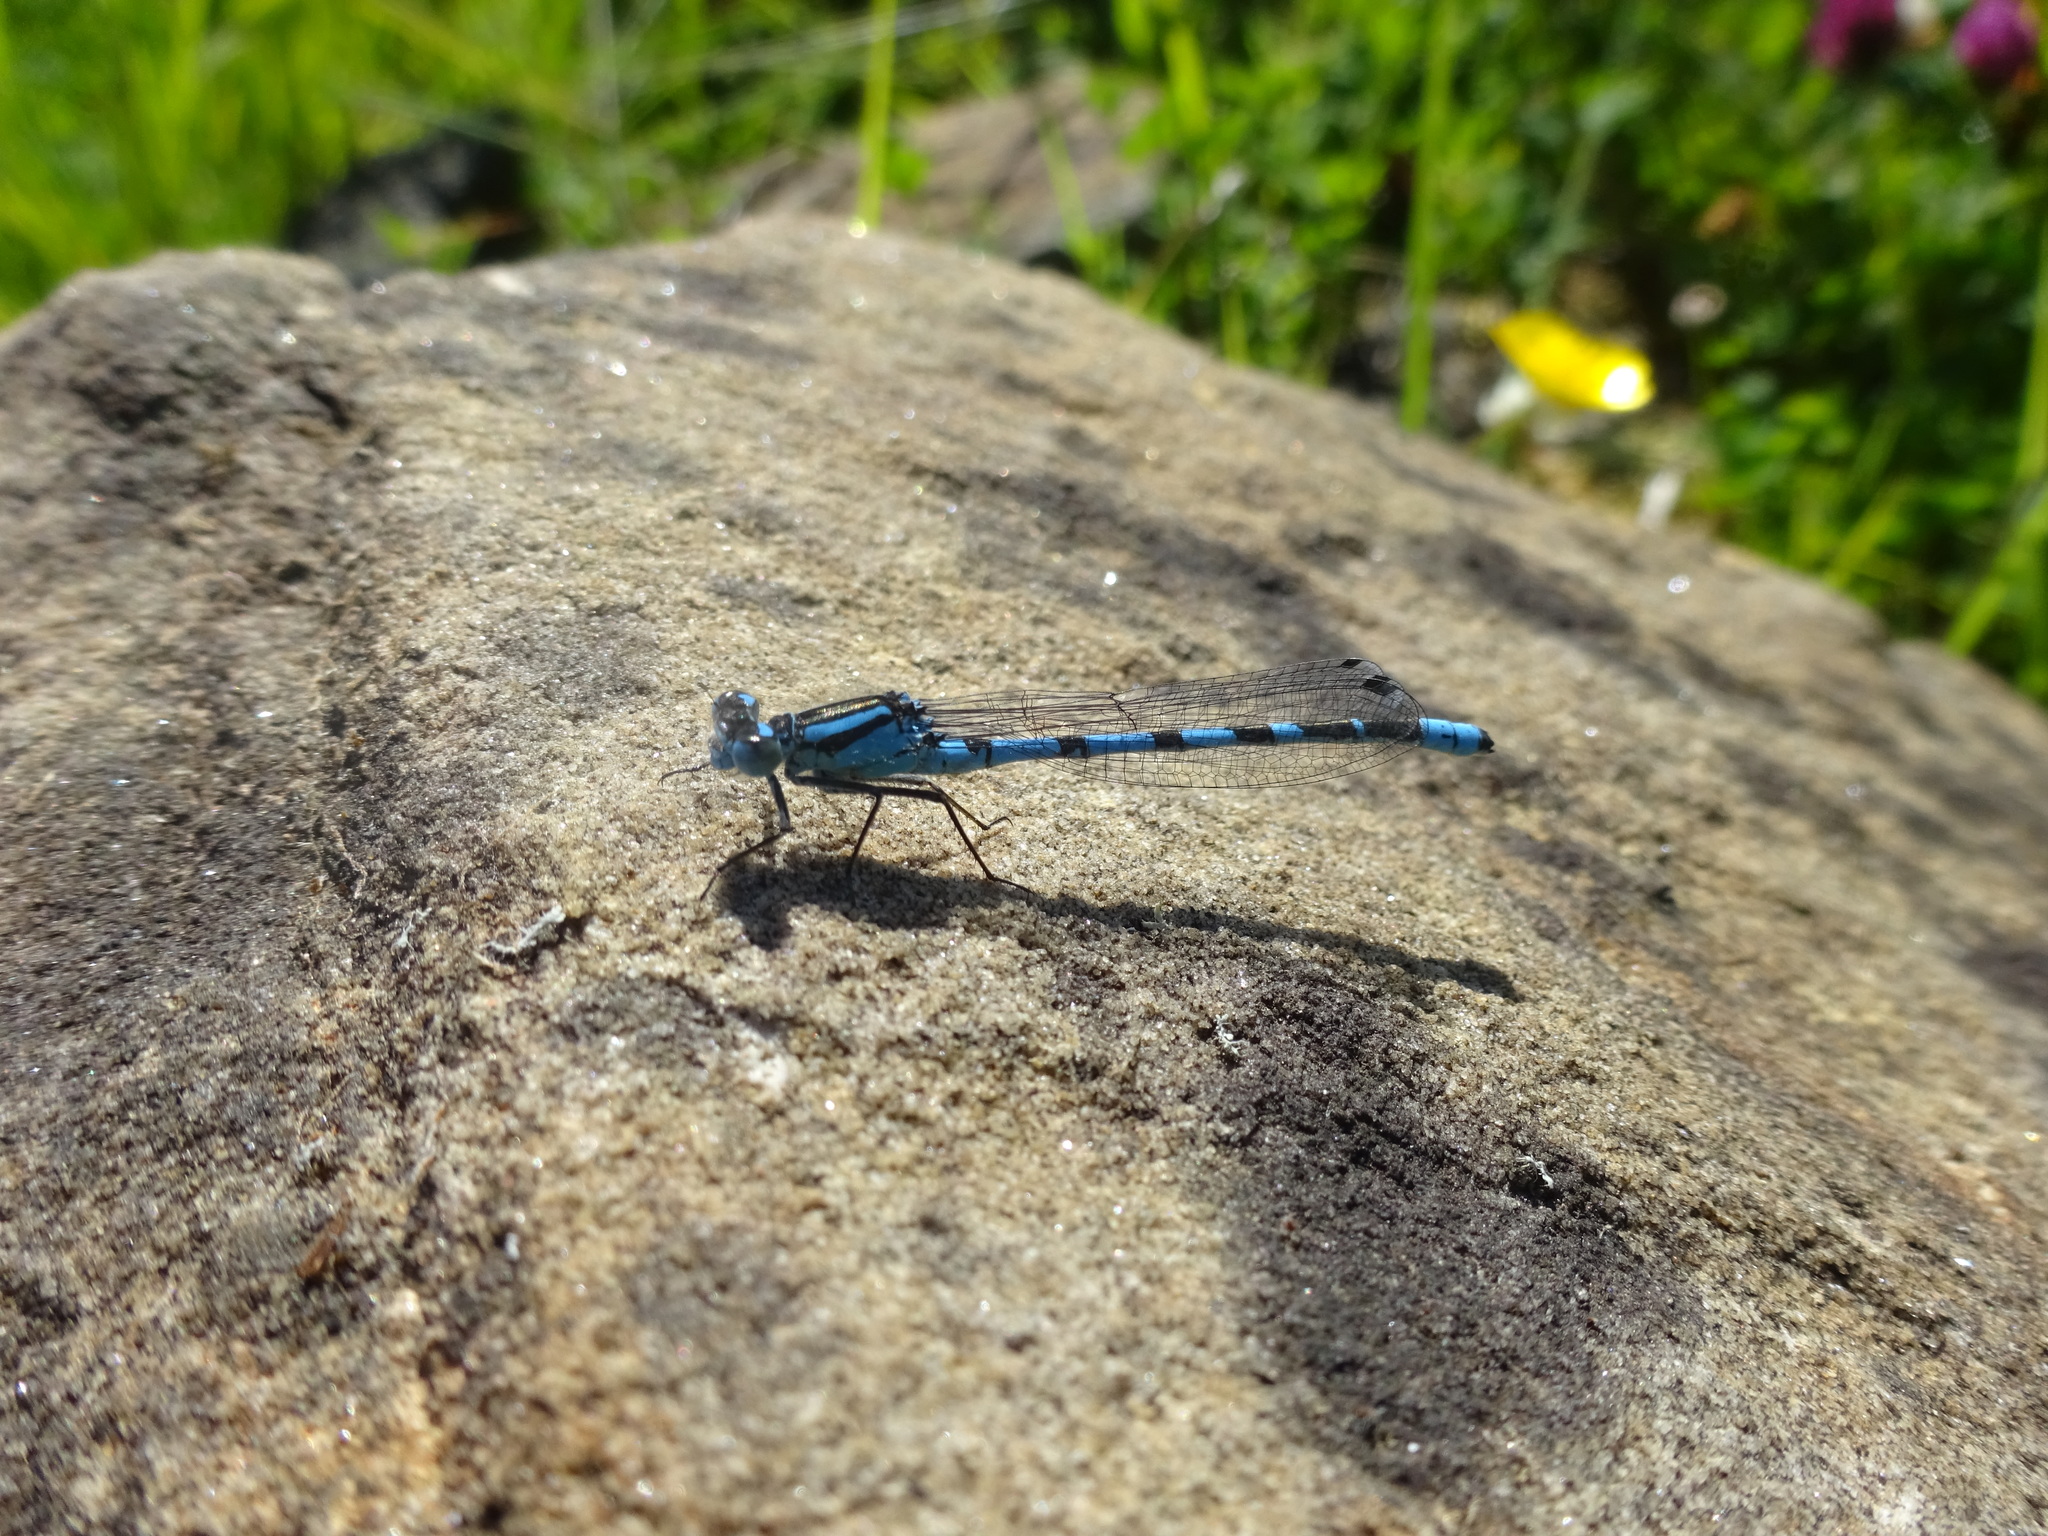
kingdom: Animalia
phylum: Arthropoda
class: Insecta
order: Odonata
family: Coenagrionidae
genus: Enallagma
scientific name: Enallagma cyathigerum
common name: Common blue damselfly
